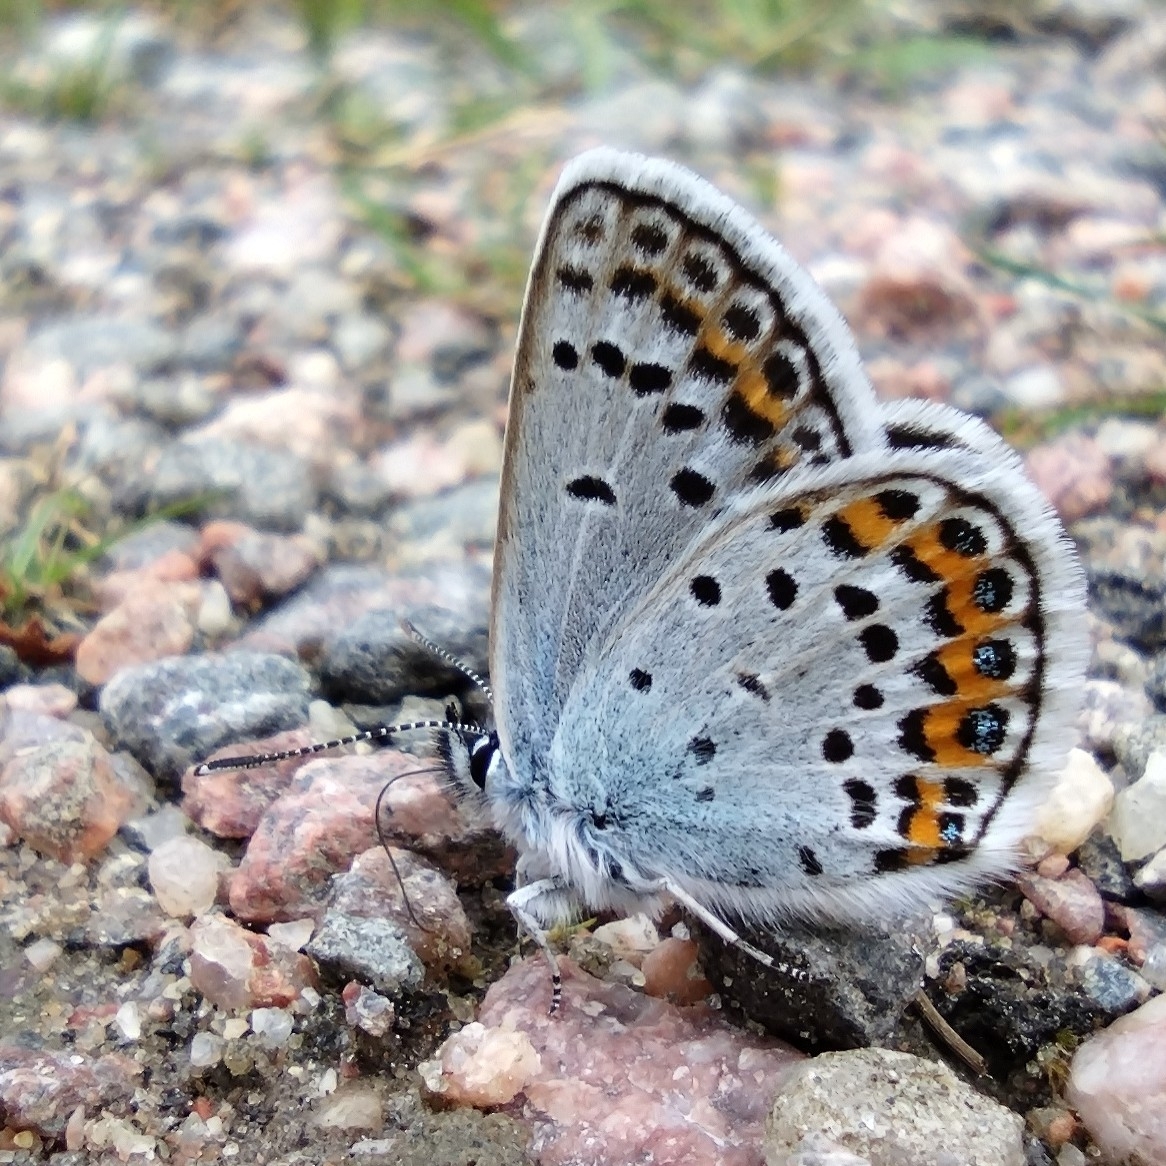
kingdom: Animalia
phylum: Arthropoda
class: Insecta
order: Lepidoptera
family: Lycaenidae
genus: Plebejus
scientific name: Plebejus argus
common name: Silver-studded blue
